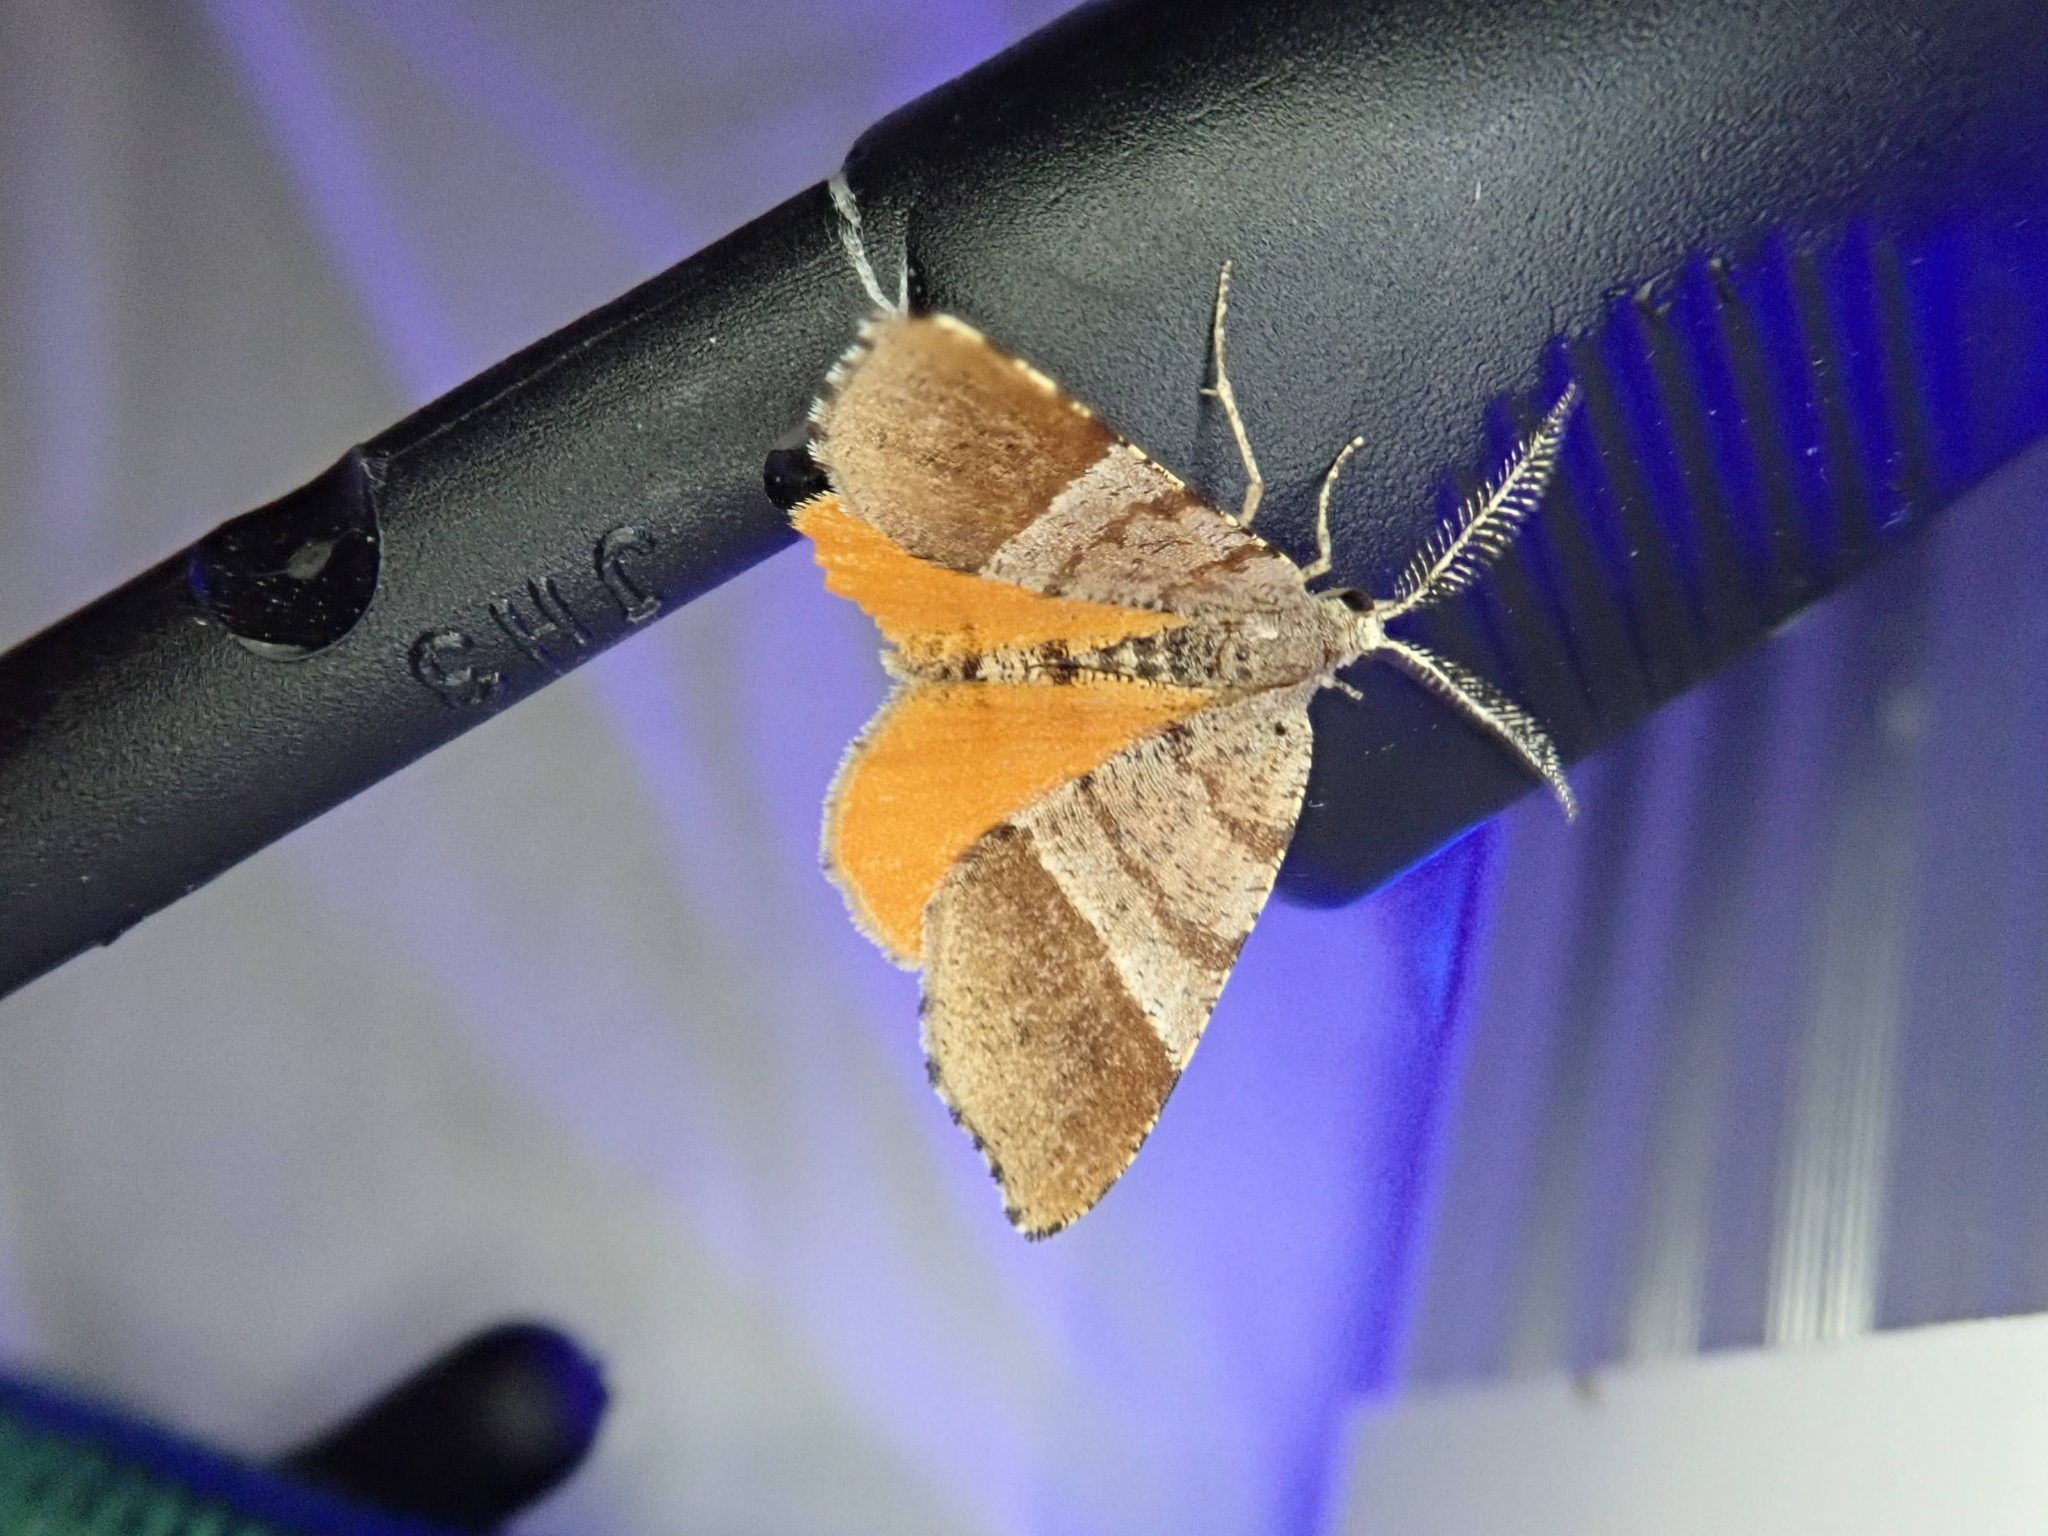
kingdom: Animalia
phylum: Arthropoda
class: Insecta
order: Lepidoptera
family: Geometridae
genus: Mellilla
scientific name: Mellilla xanthometata
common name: Orange wing moth
